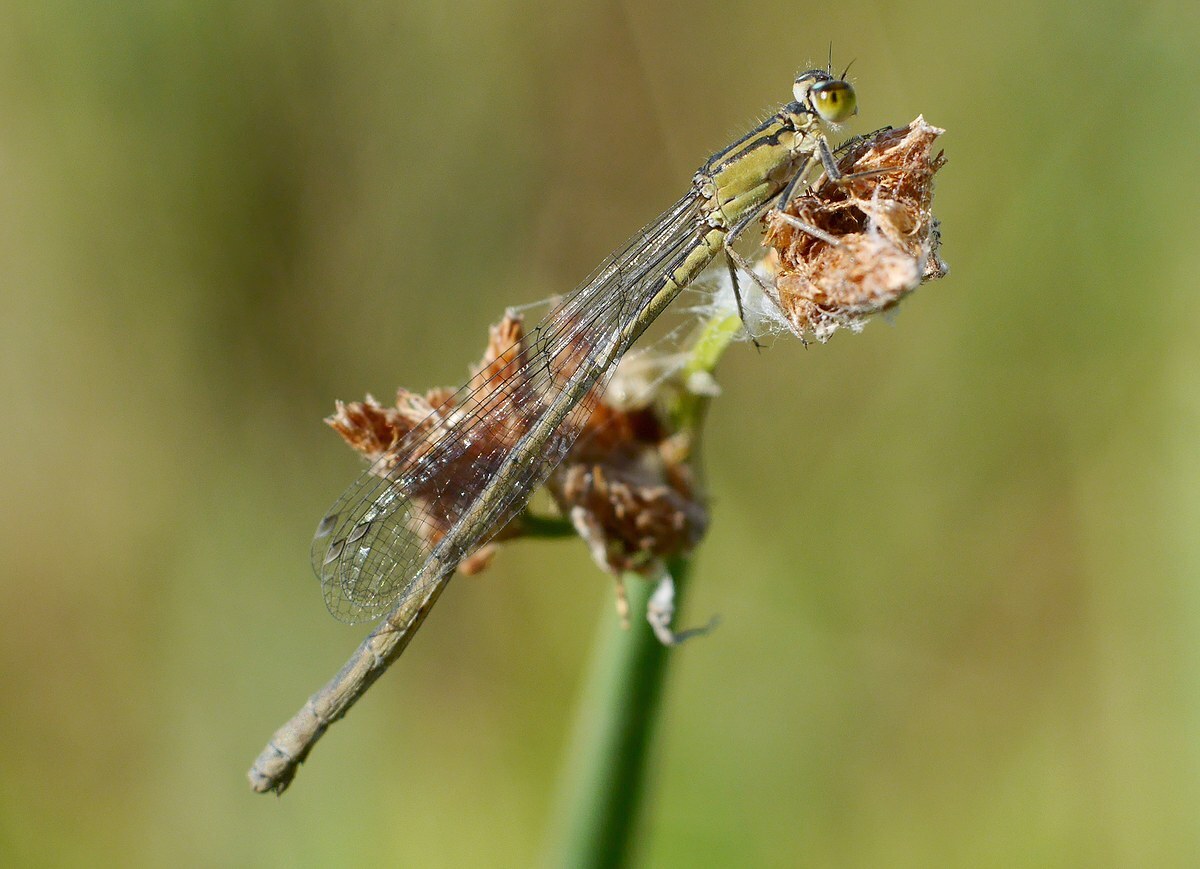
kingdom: Animalia
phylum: Arthropoda
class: Insecta
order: Odonata
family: Coenagrionidae
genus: Ischnura
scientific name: Ischnura elegans
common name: Blue-tailed damselfly
